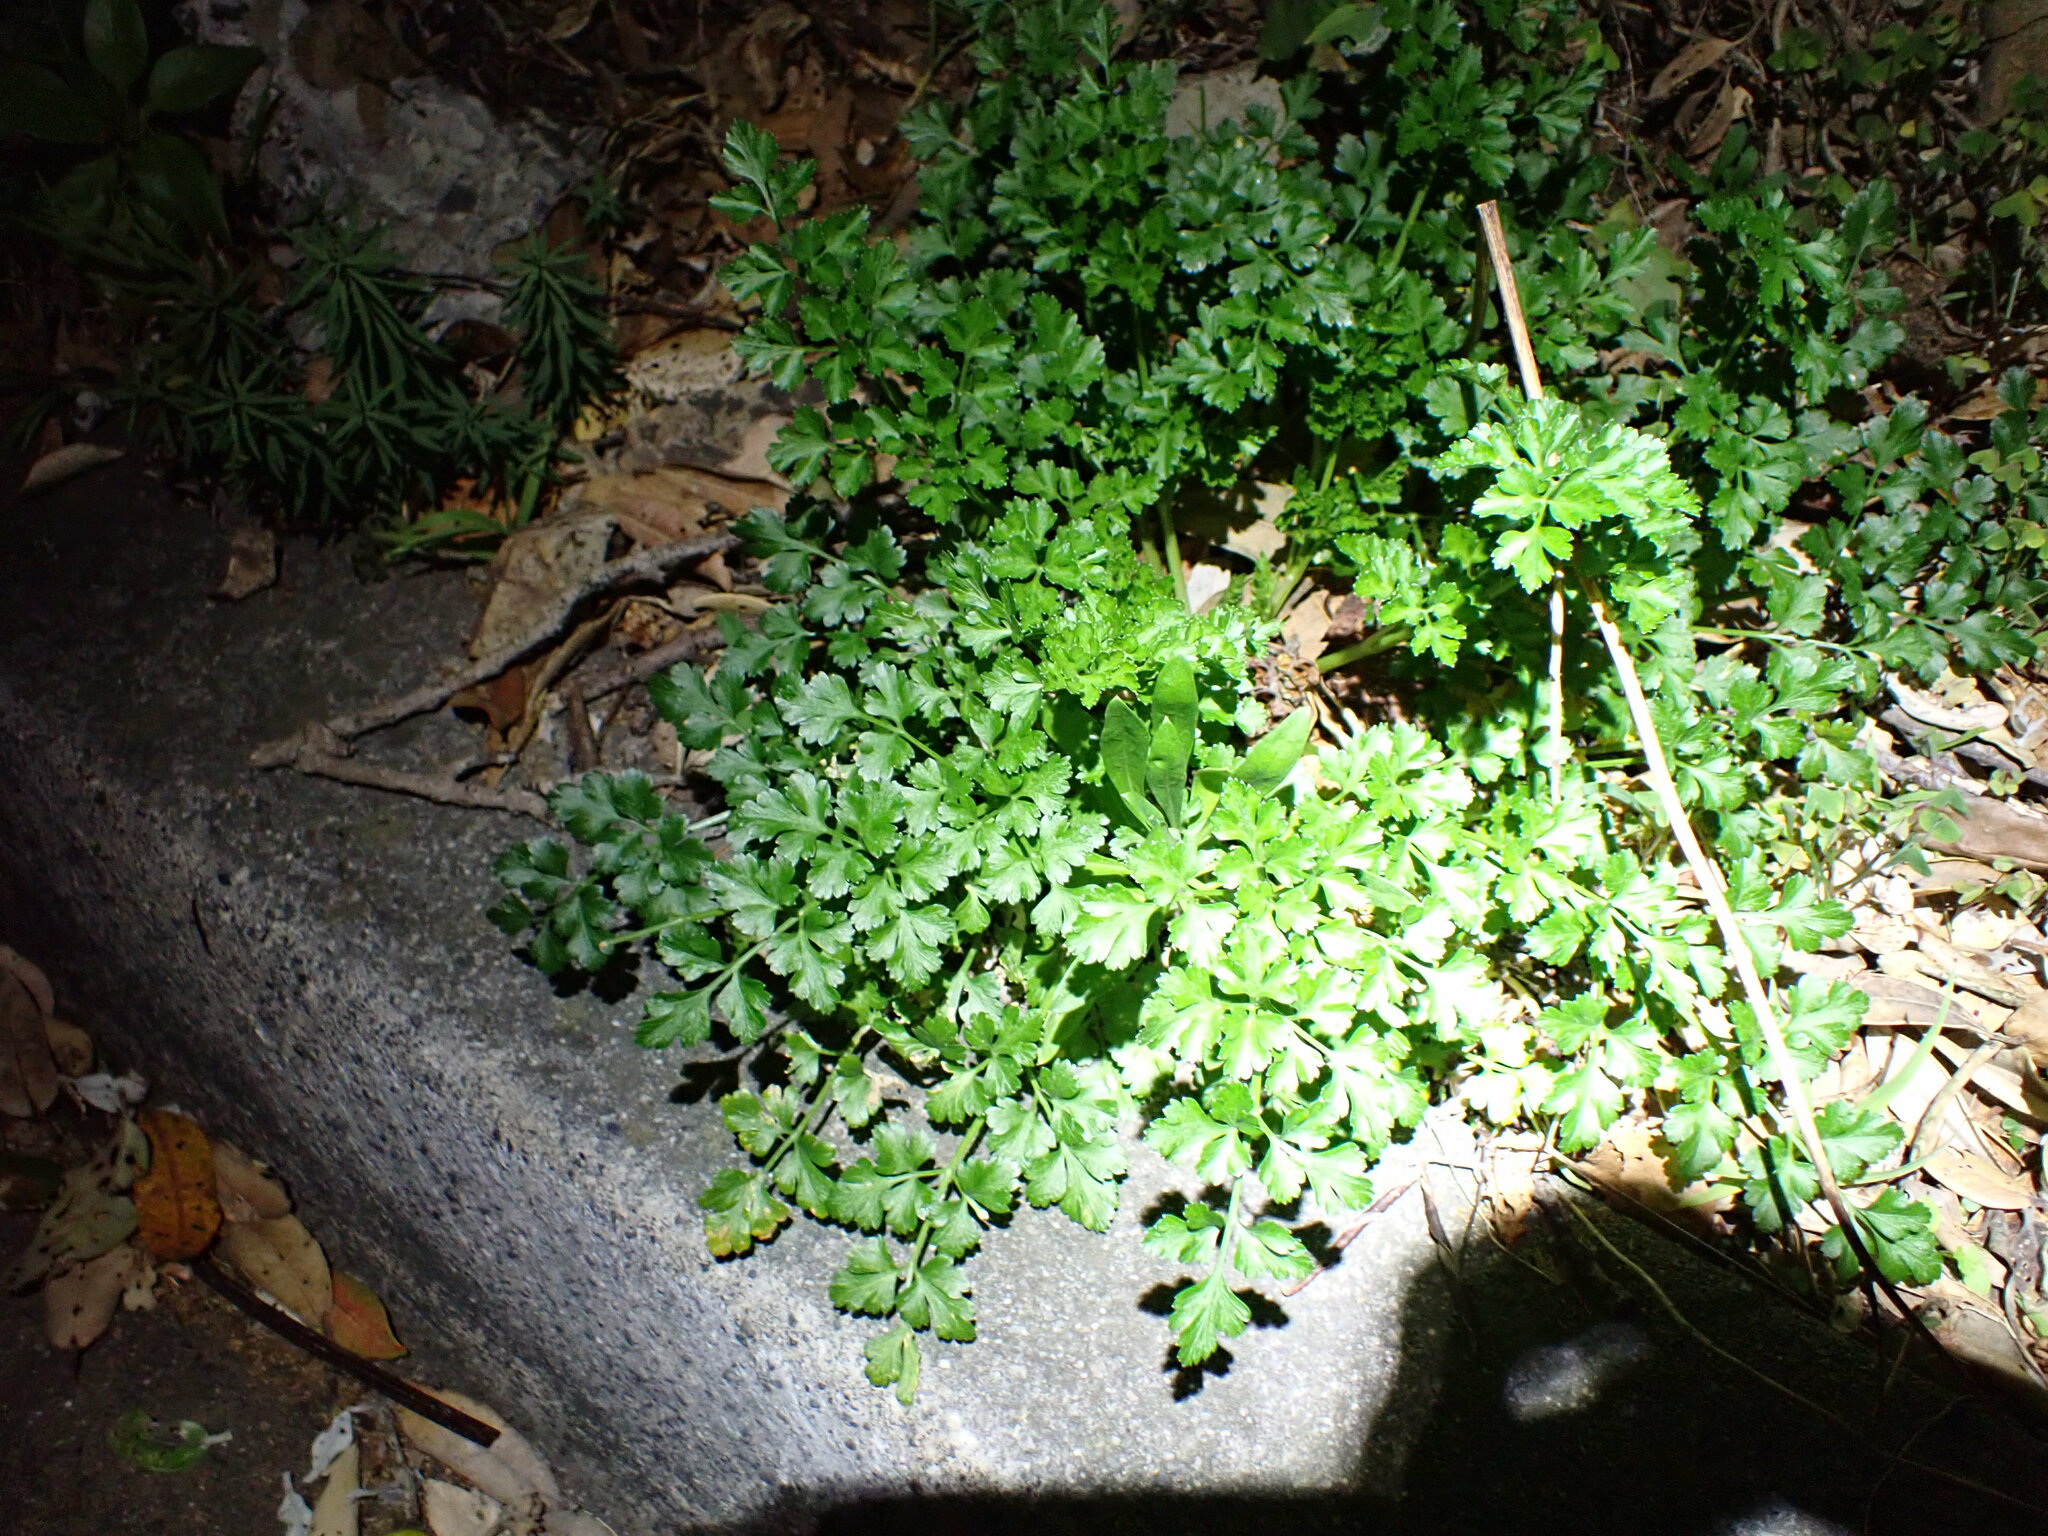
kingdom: Plantae
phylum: Tracheophyta
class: Magnoliopsida
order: Apiales
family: Apiaceae
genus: Petroselinum
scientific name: Petroselinum crispum
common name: Parsley
